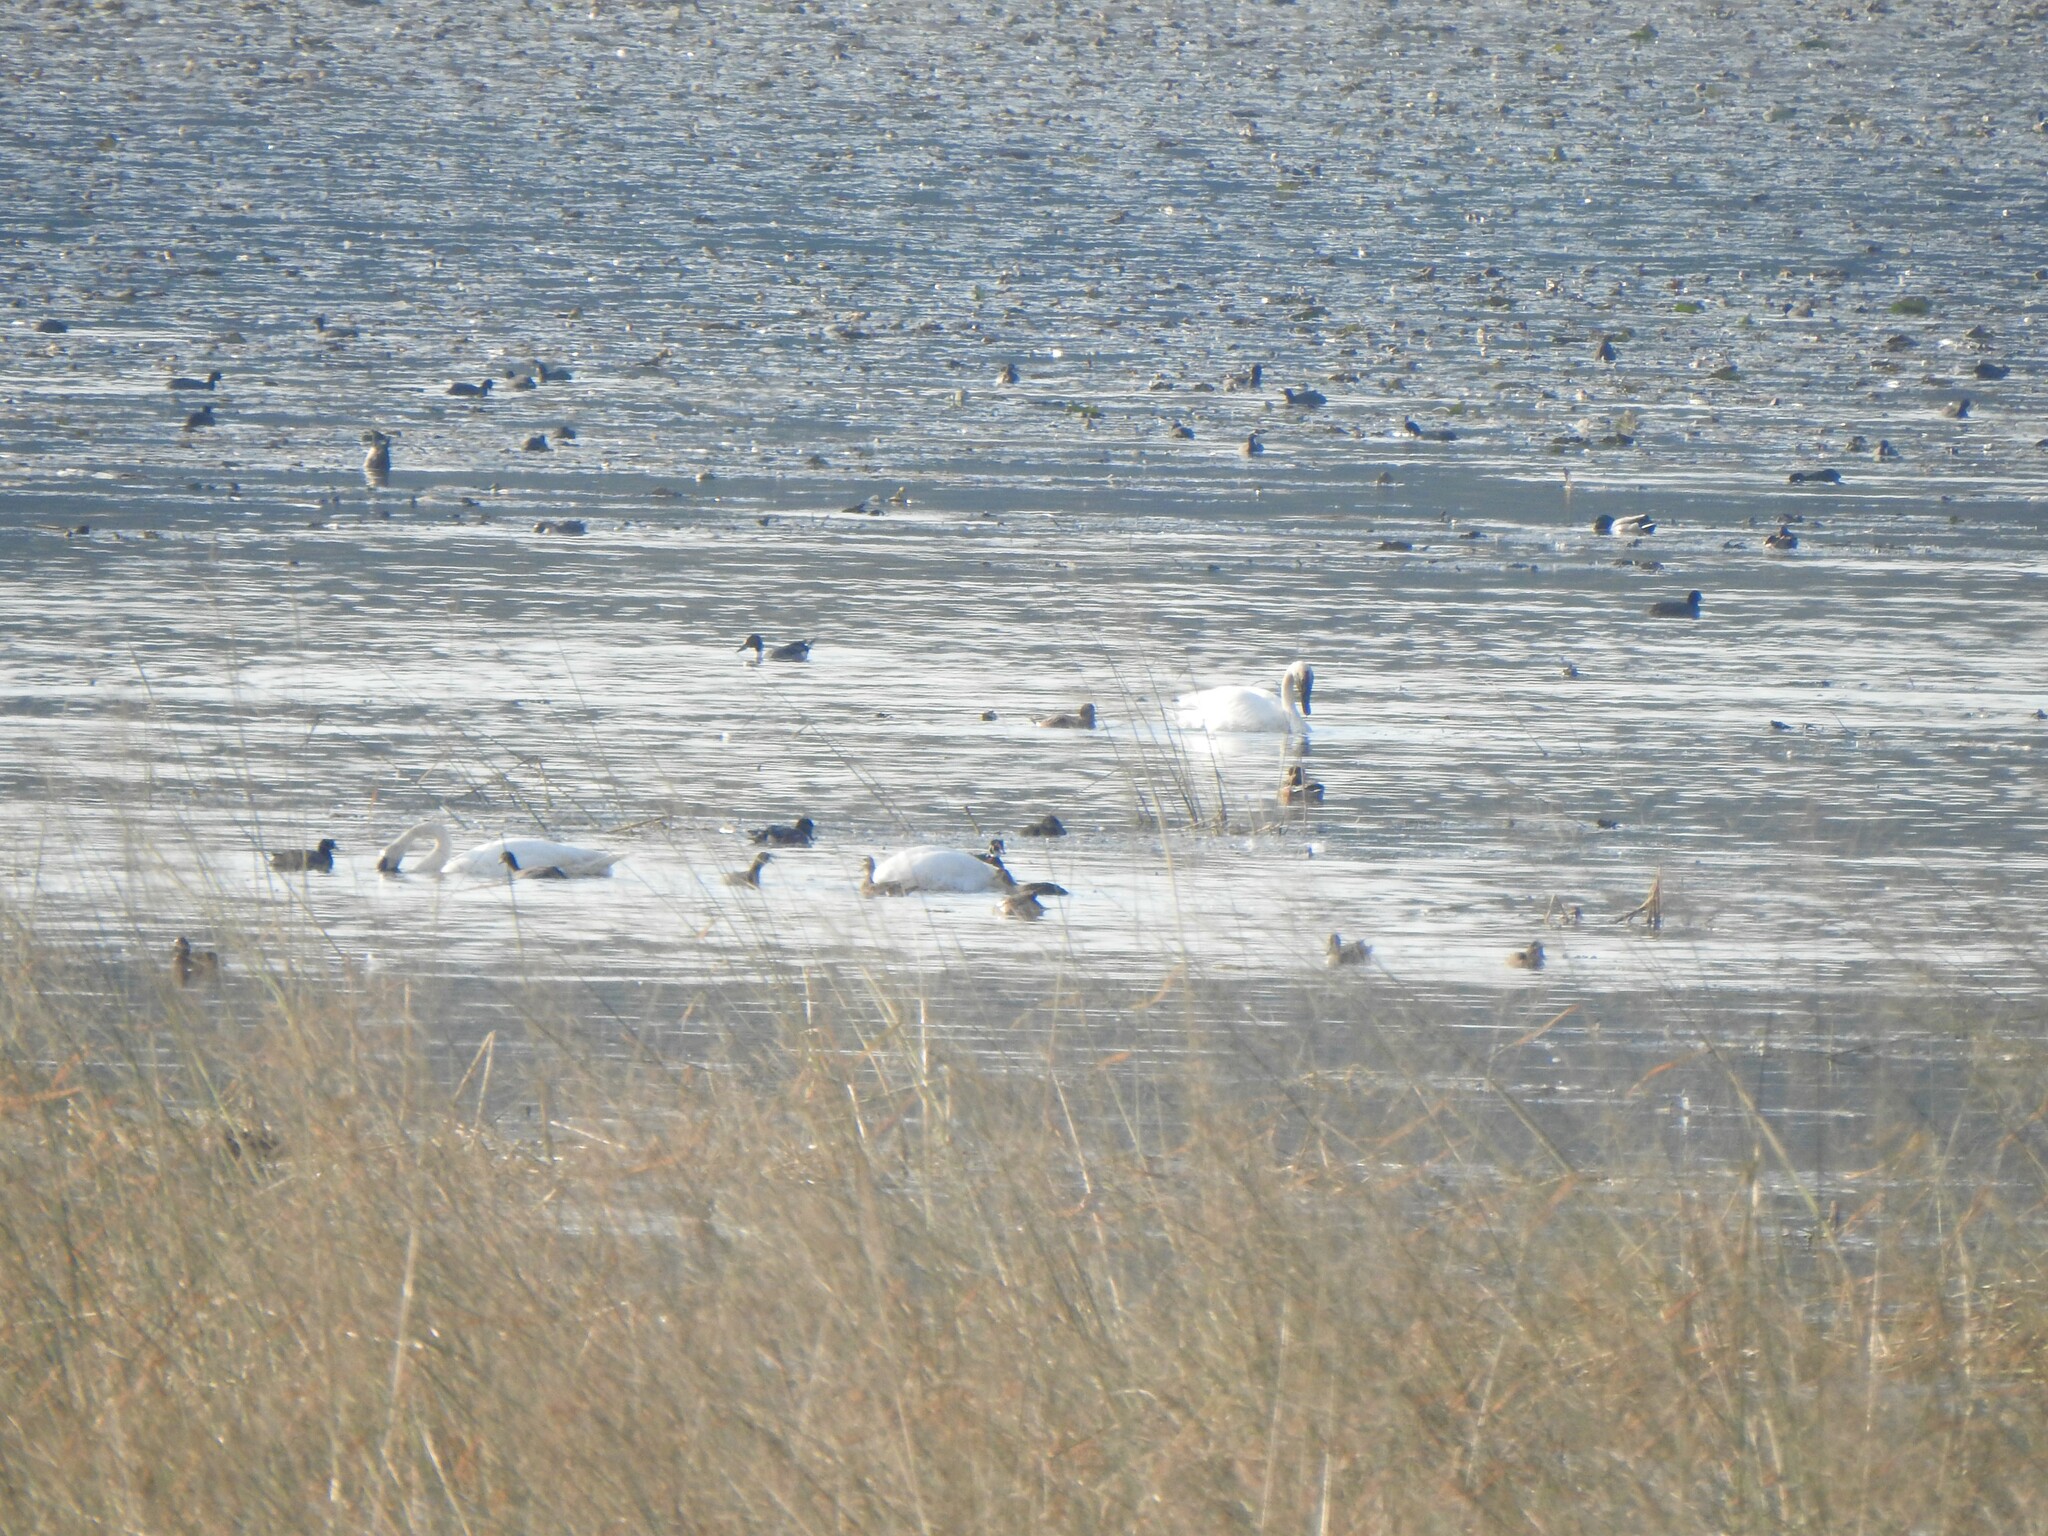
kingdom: Animalia
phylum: Chordata
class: Aves
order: Anseriformes
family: Anatidae
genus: Cygnus
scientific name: Cygnus buccinator
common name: Trumpeter swan
